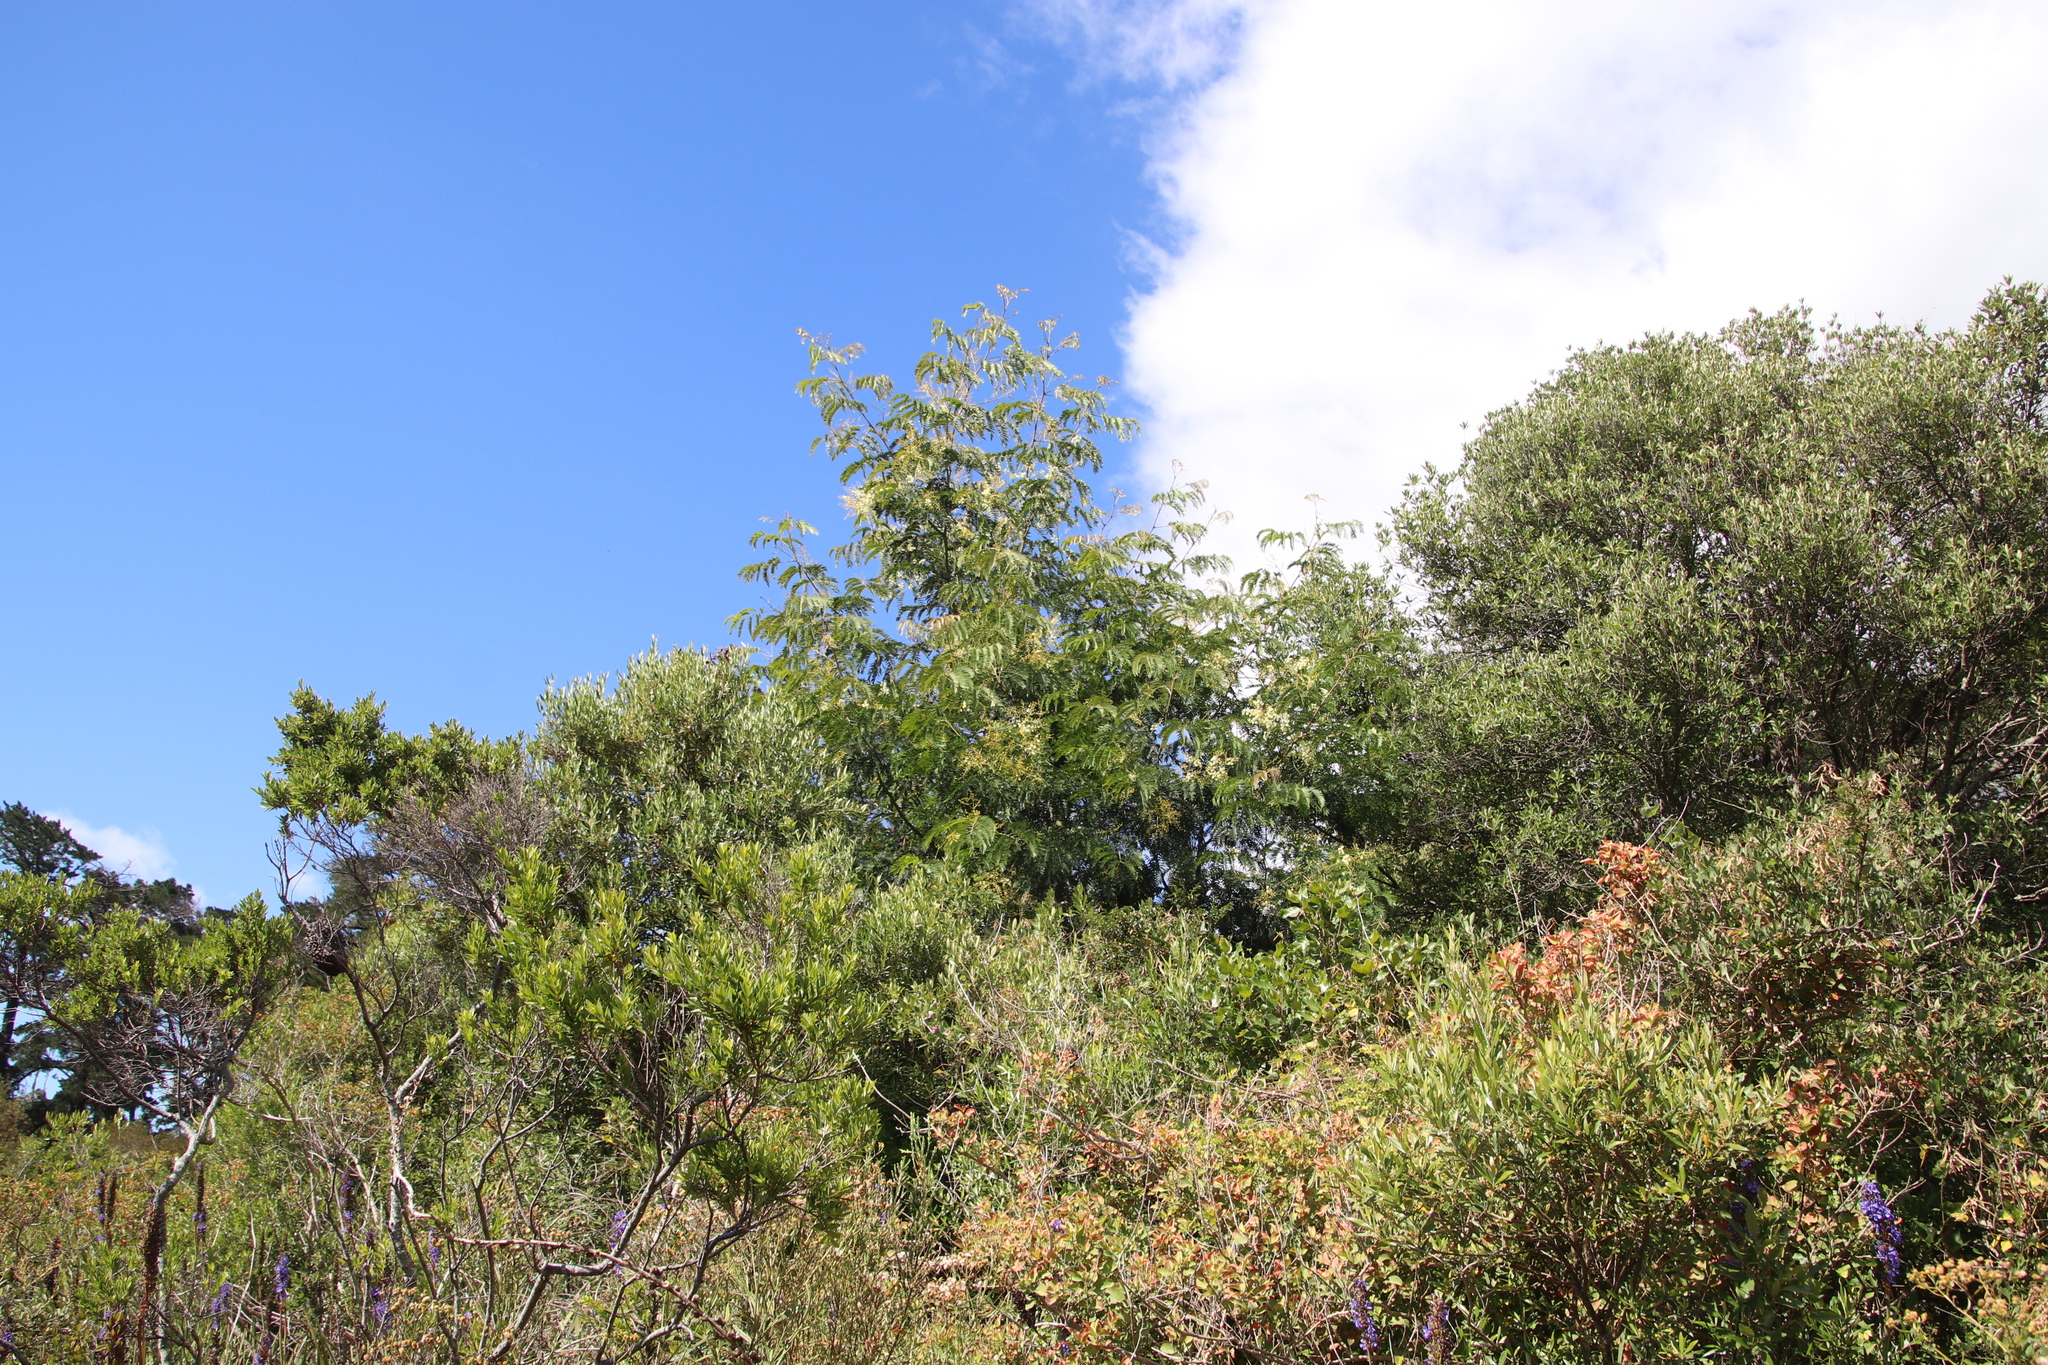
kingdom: Plantae
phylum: Tracheophyta
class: Magnoliopsida
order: Fabales
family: Fabaceae
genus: Acacia
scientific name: Acacia elata
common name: Cedar wattle
